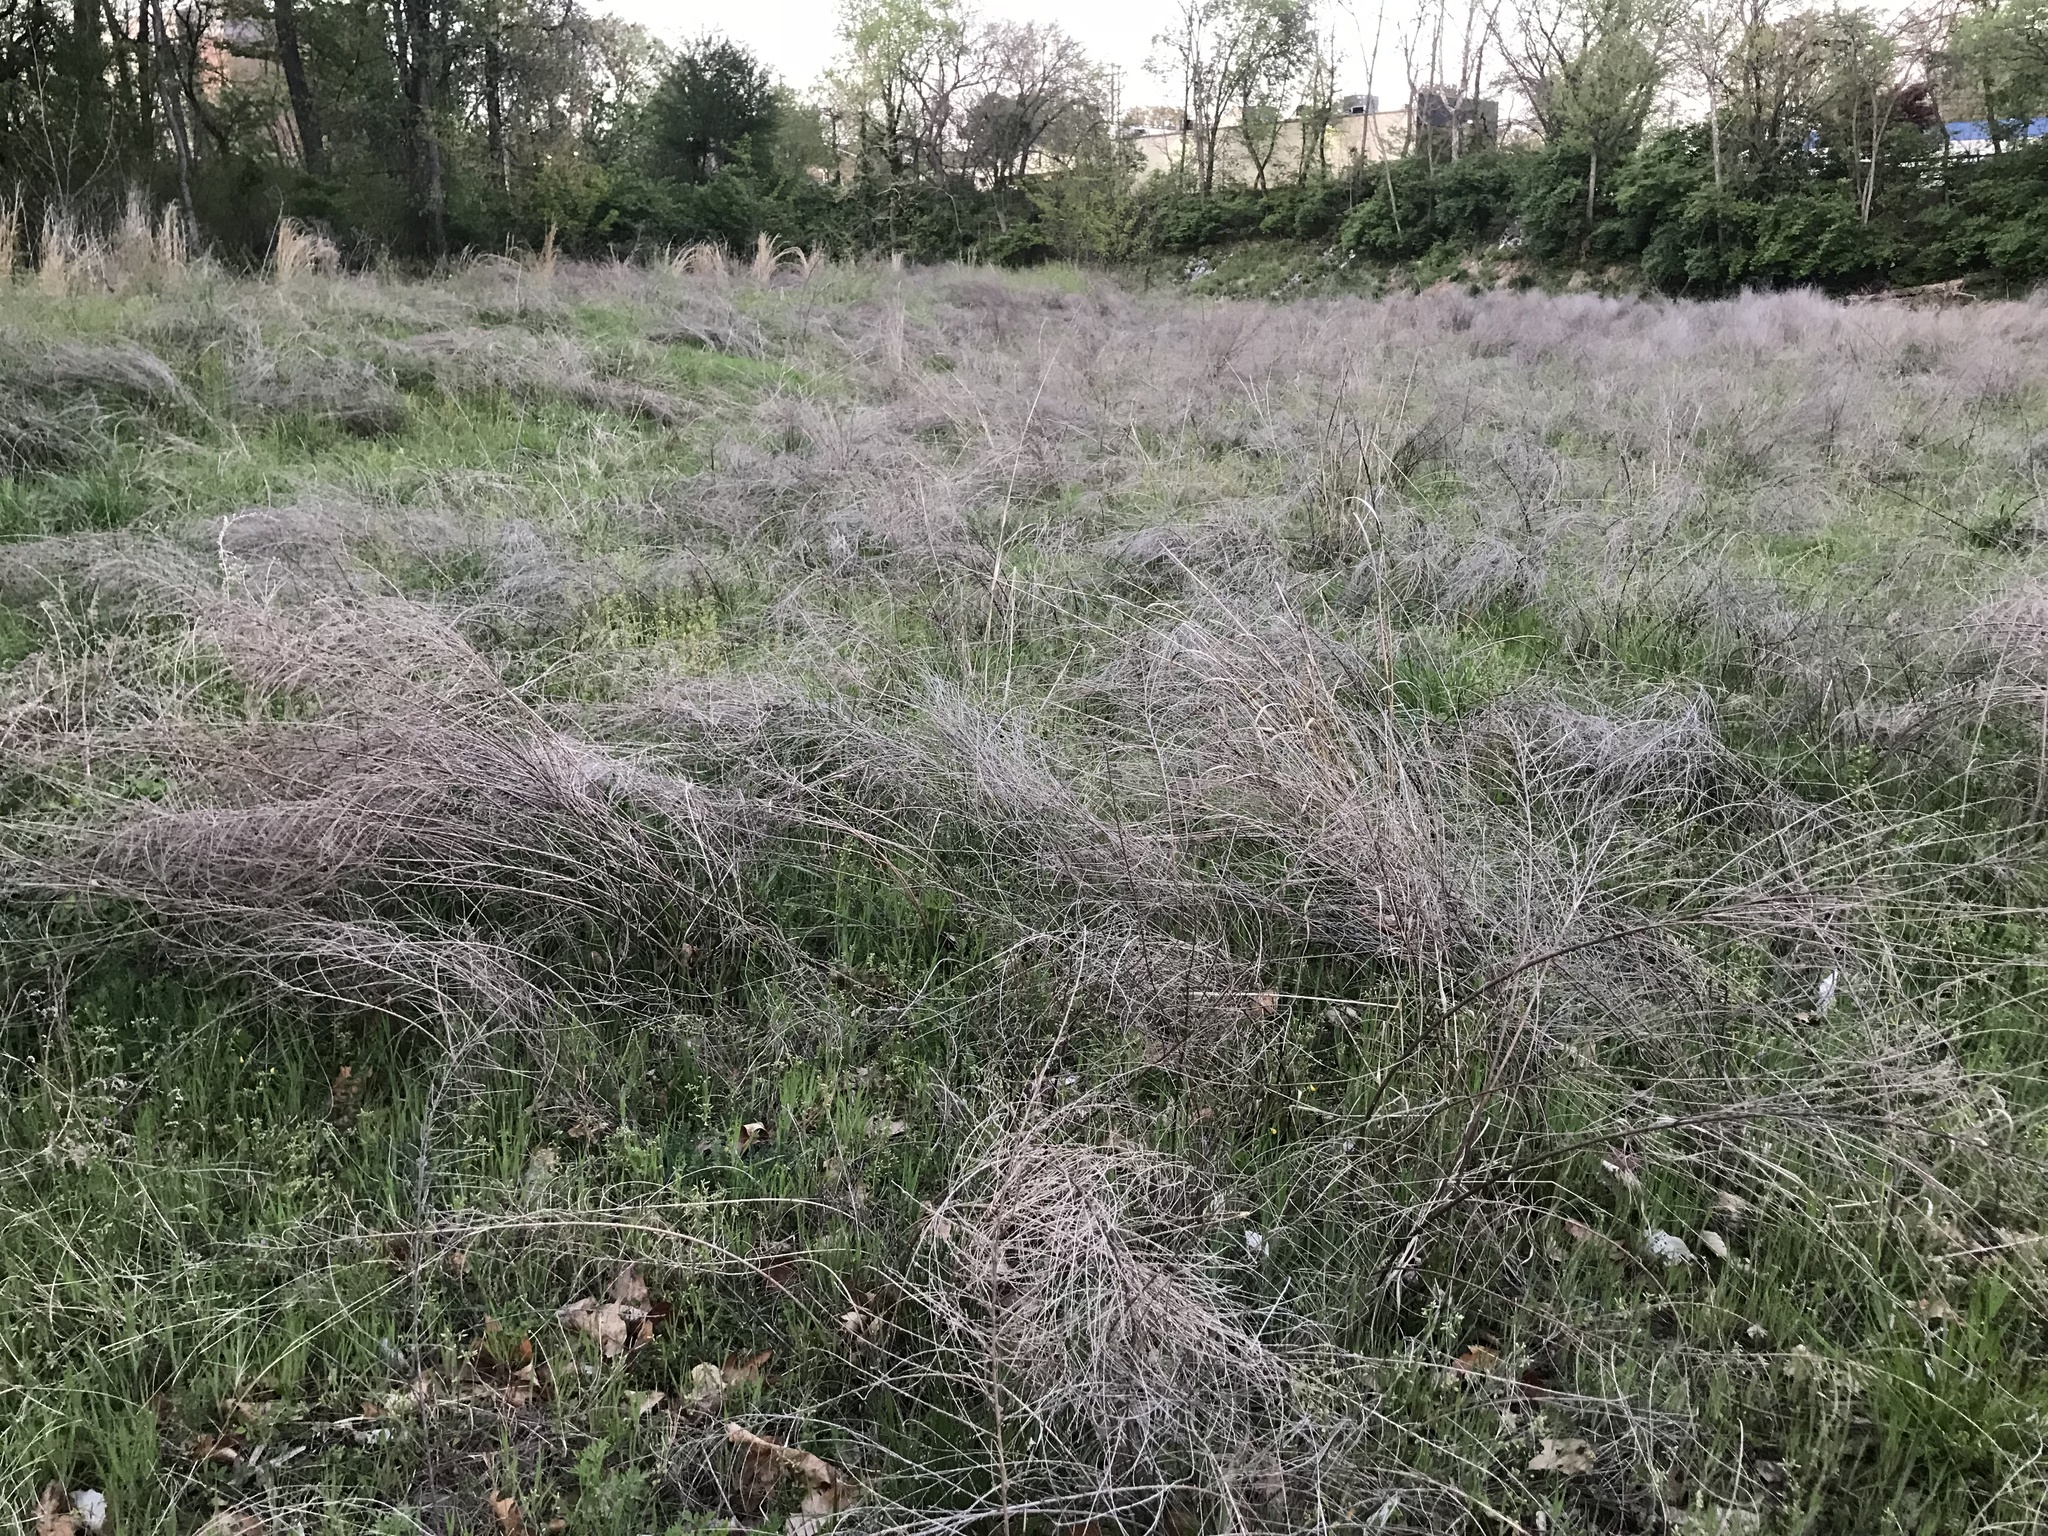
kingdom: Plantae
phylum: Tracheophyta
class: Magnoliopsida
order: Fabales
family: Fabaceae
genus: Lespedeza
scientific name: Lespedeza cuneata
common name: Chinese bush-clover
